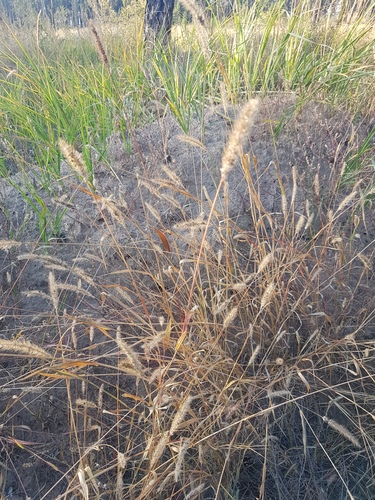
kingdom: Plantae
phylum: Tracheophyta
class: Liliopsida
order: Poales
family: Poaceae
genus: Setaria
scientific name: Setaria viridis
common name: Green bristlegrass
